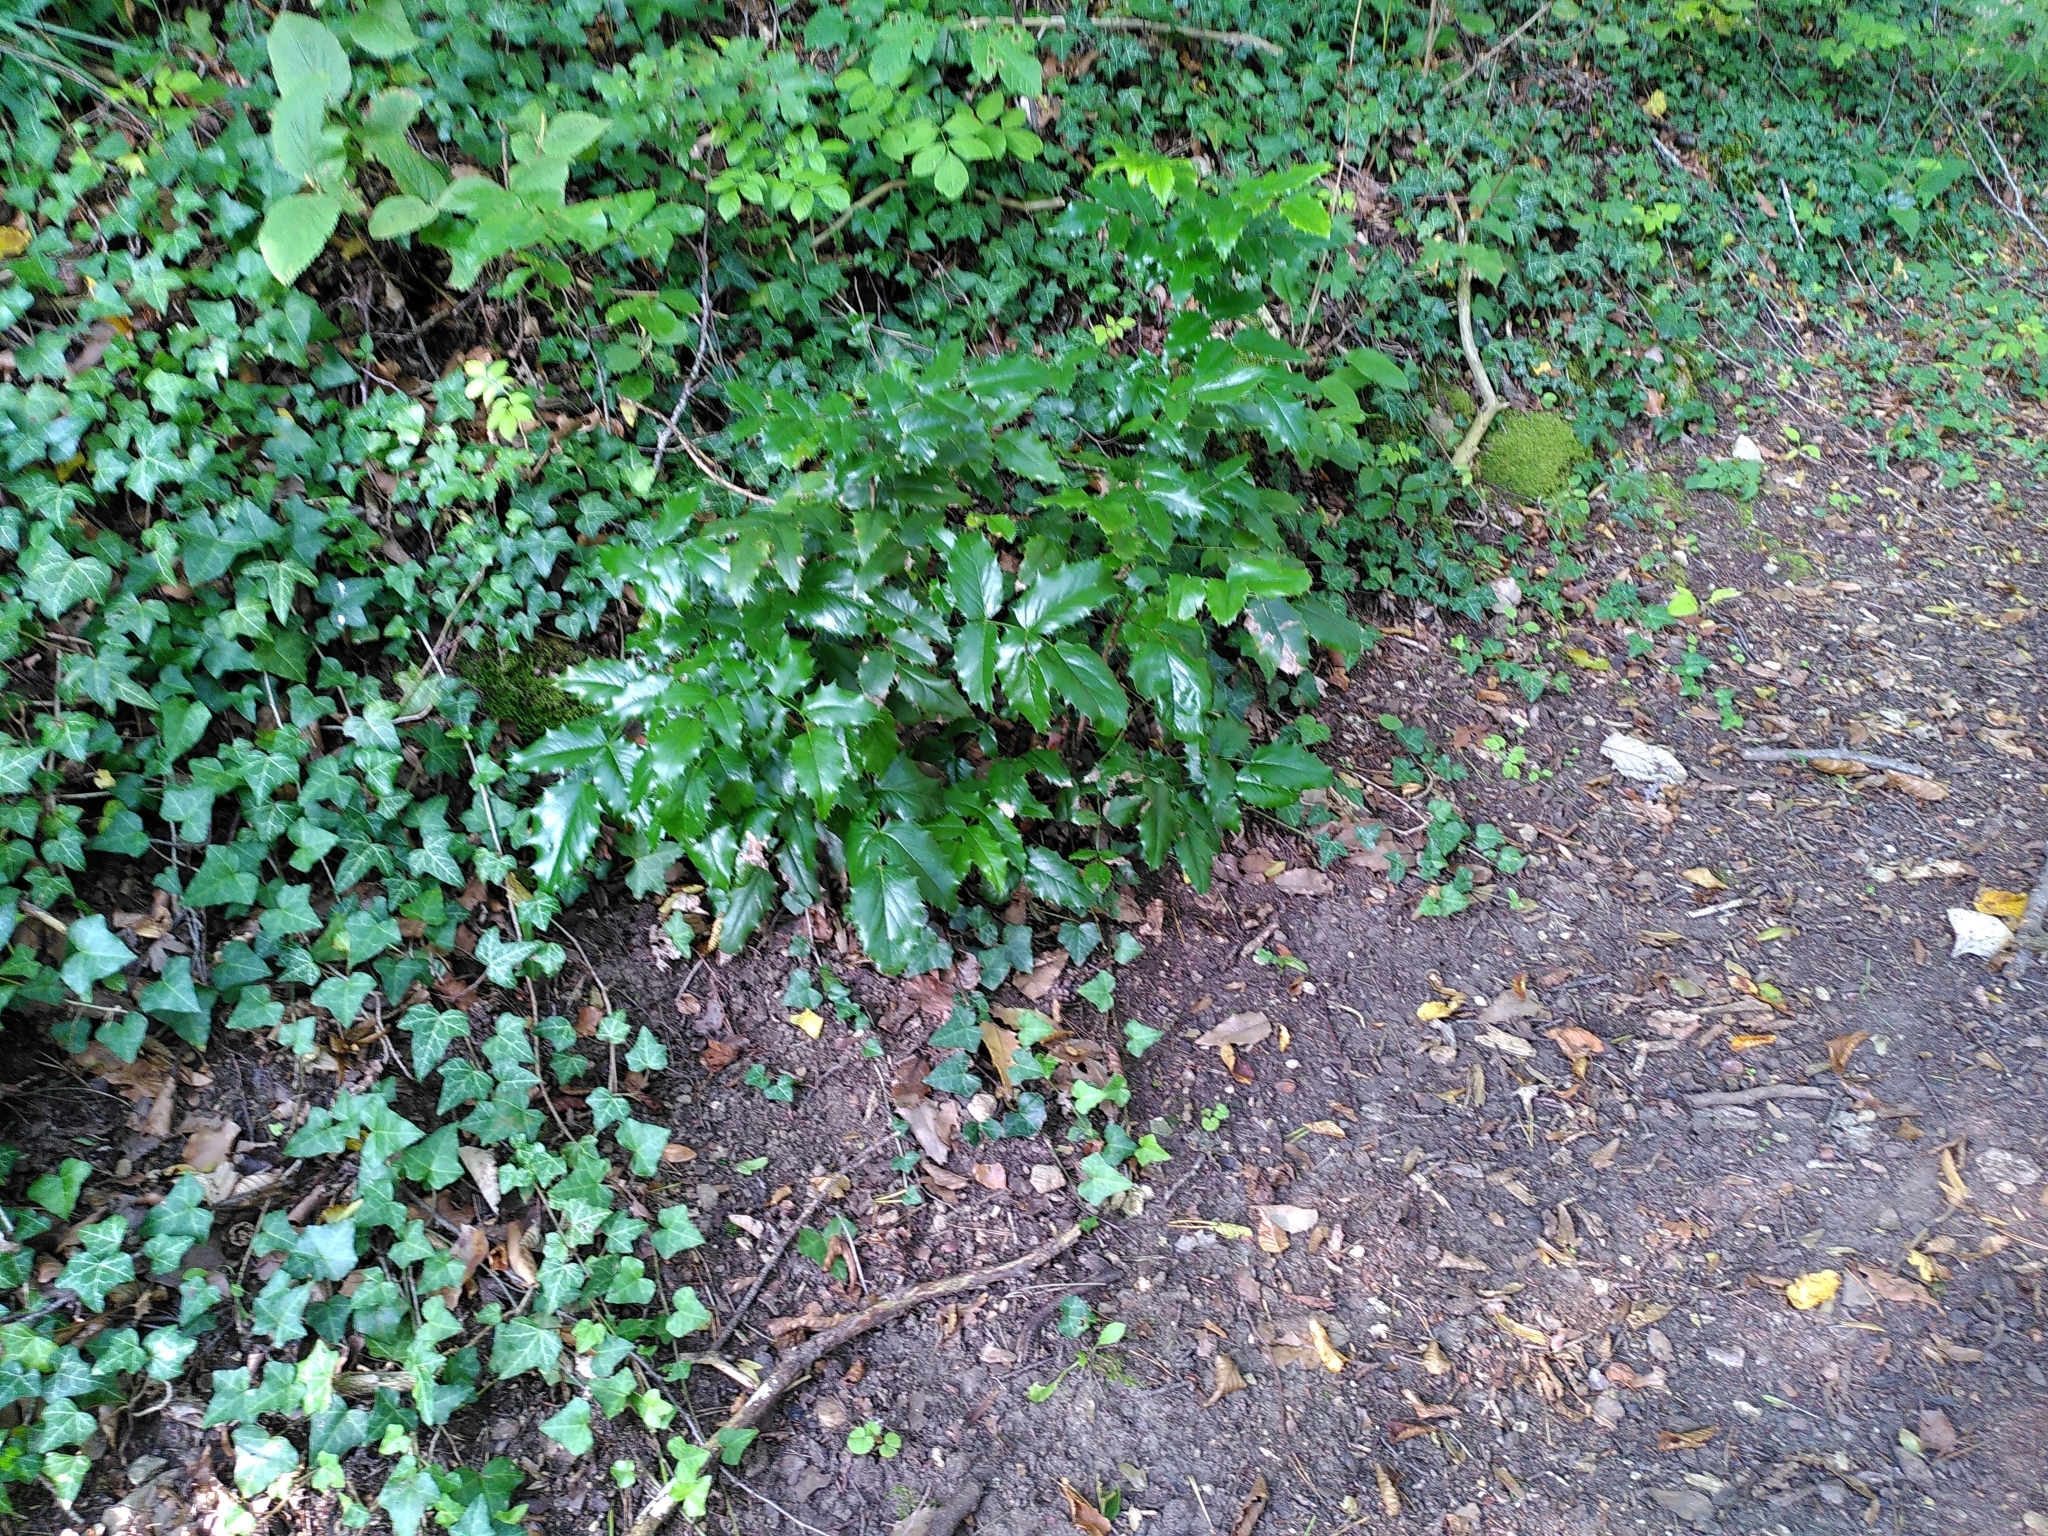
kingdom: Plantae
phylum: Tracheophyta
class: Magnoliopsida
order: Ranunculales
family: Berberidaceae
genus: Mahonia
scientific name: Mahonia aquifolium
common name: Oregon-grape
